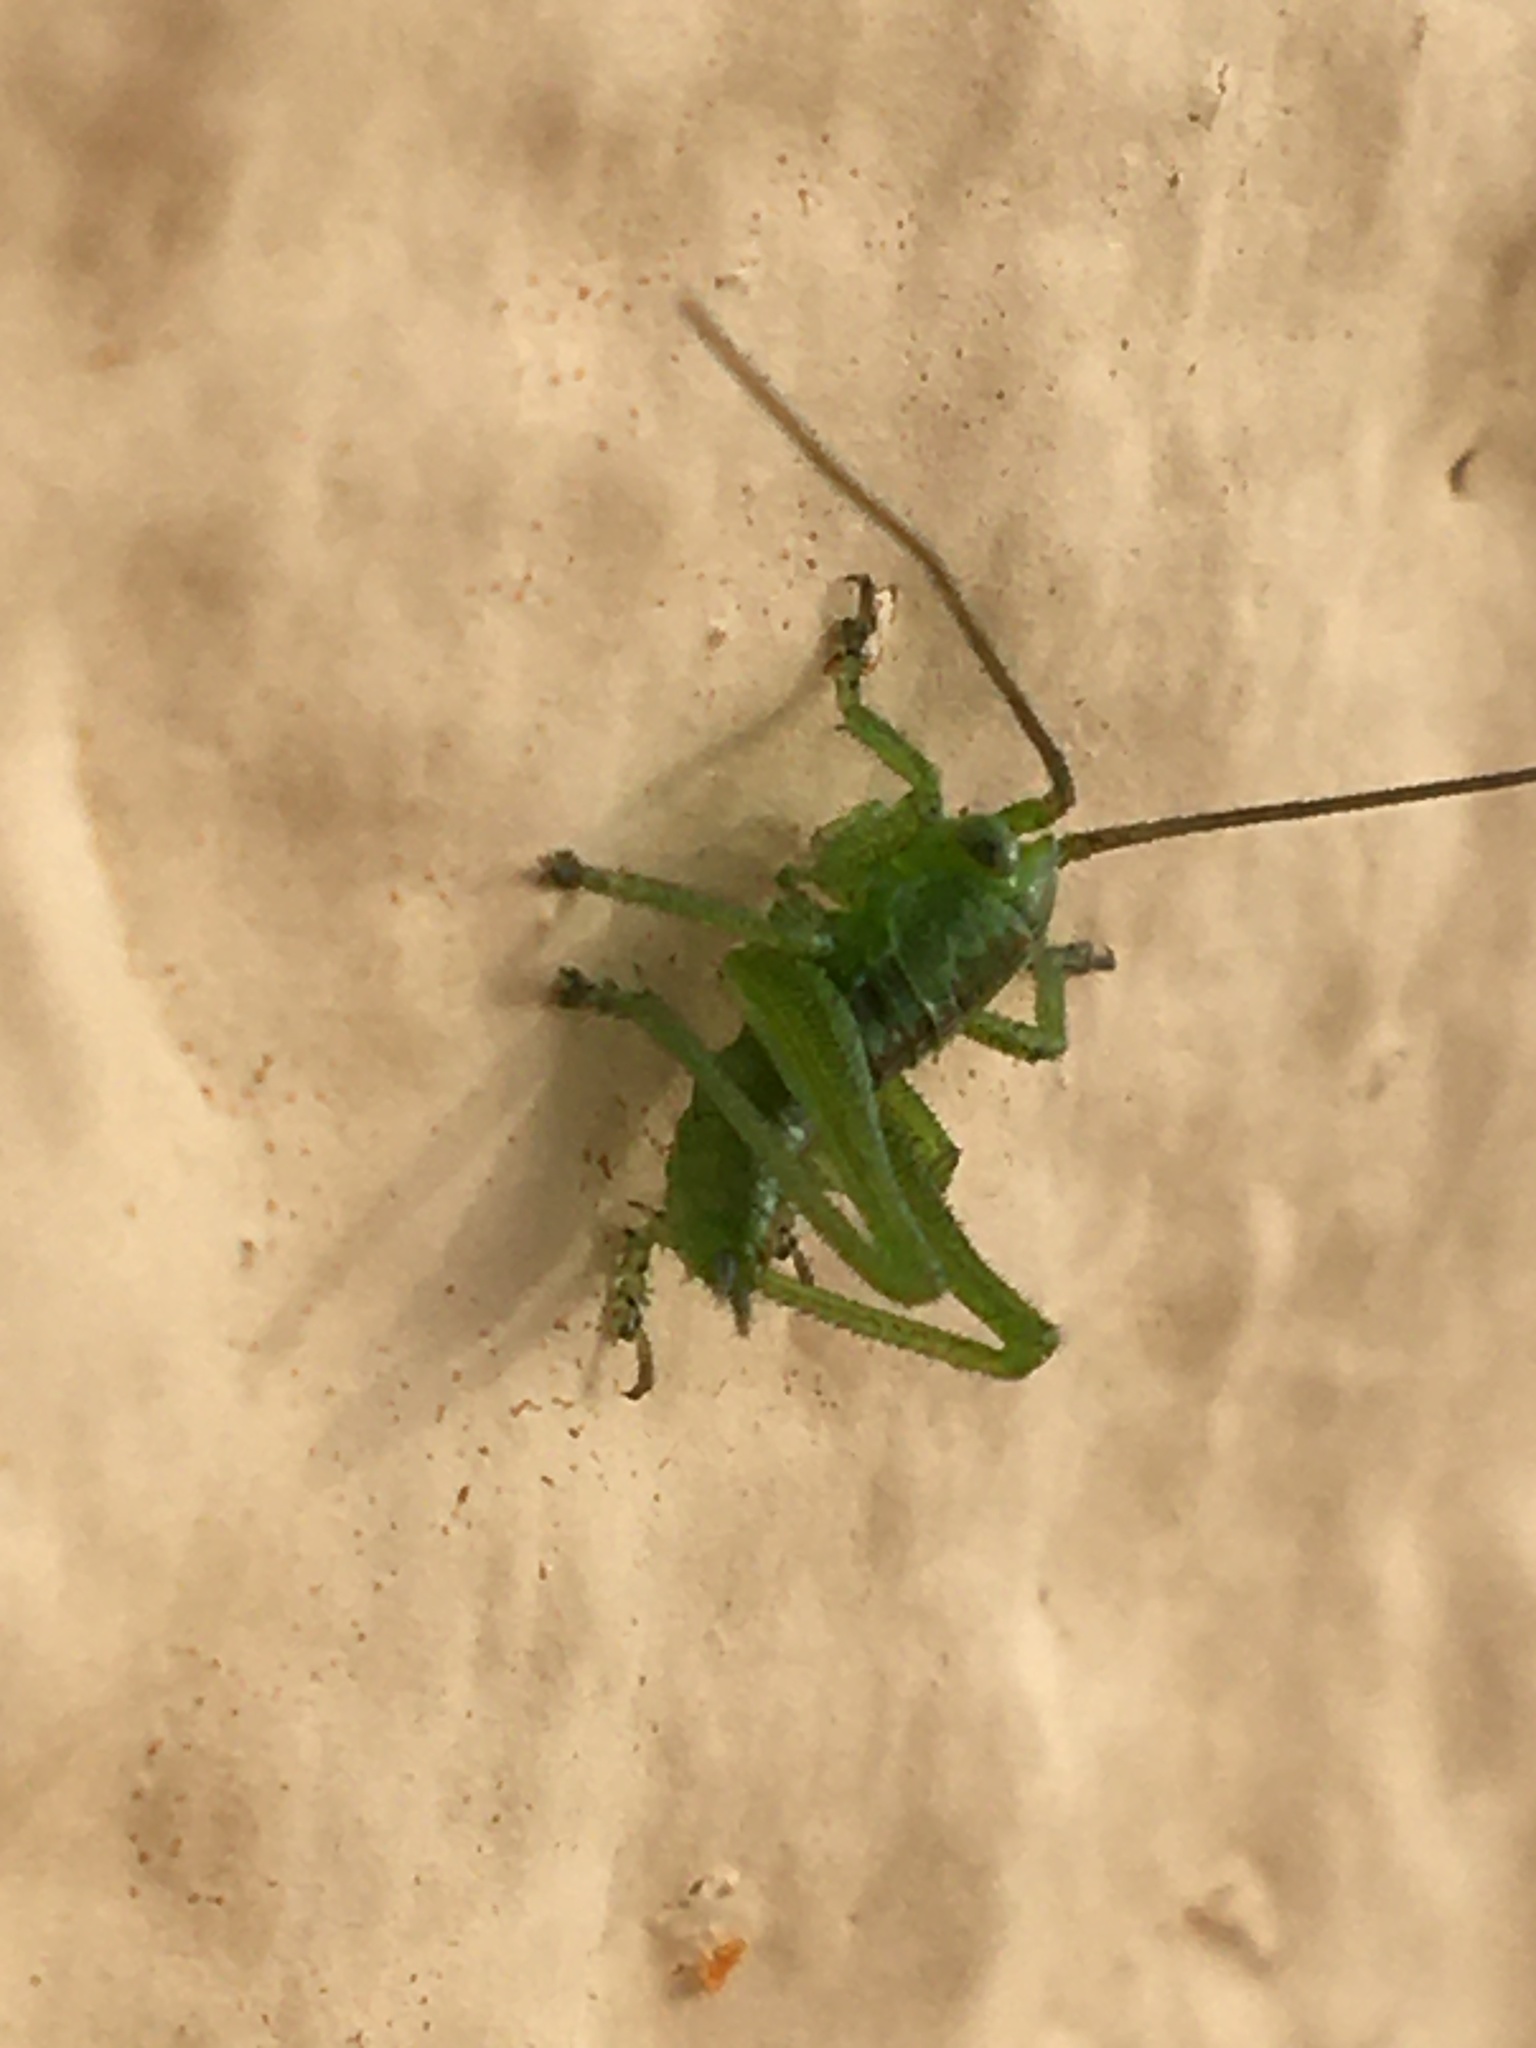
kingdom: Animalia
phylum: Arthropoda
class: Insecta
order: Orthoptera
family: Tettigoniidae
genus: Tettigonia
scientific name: Tettigonia viridissima
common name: Great green bush-cricket
